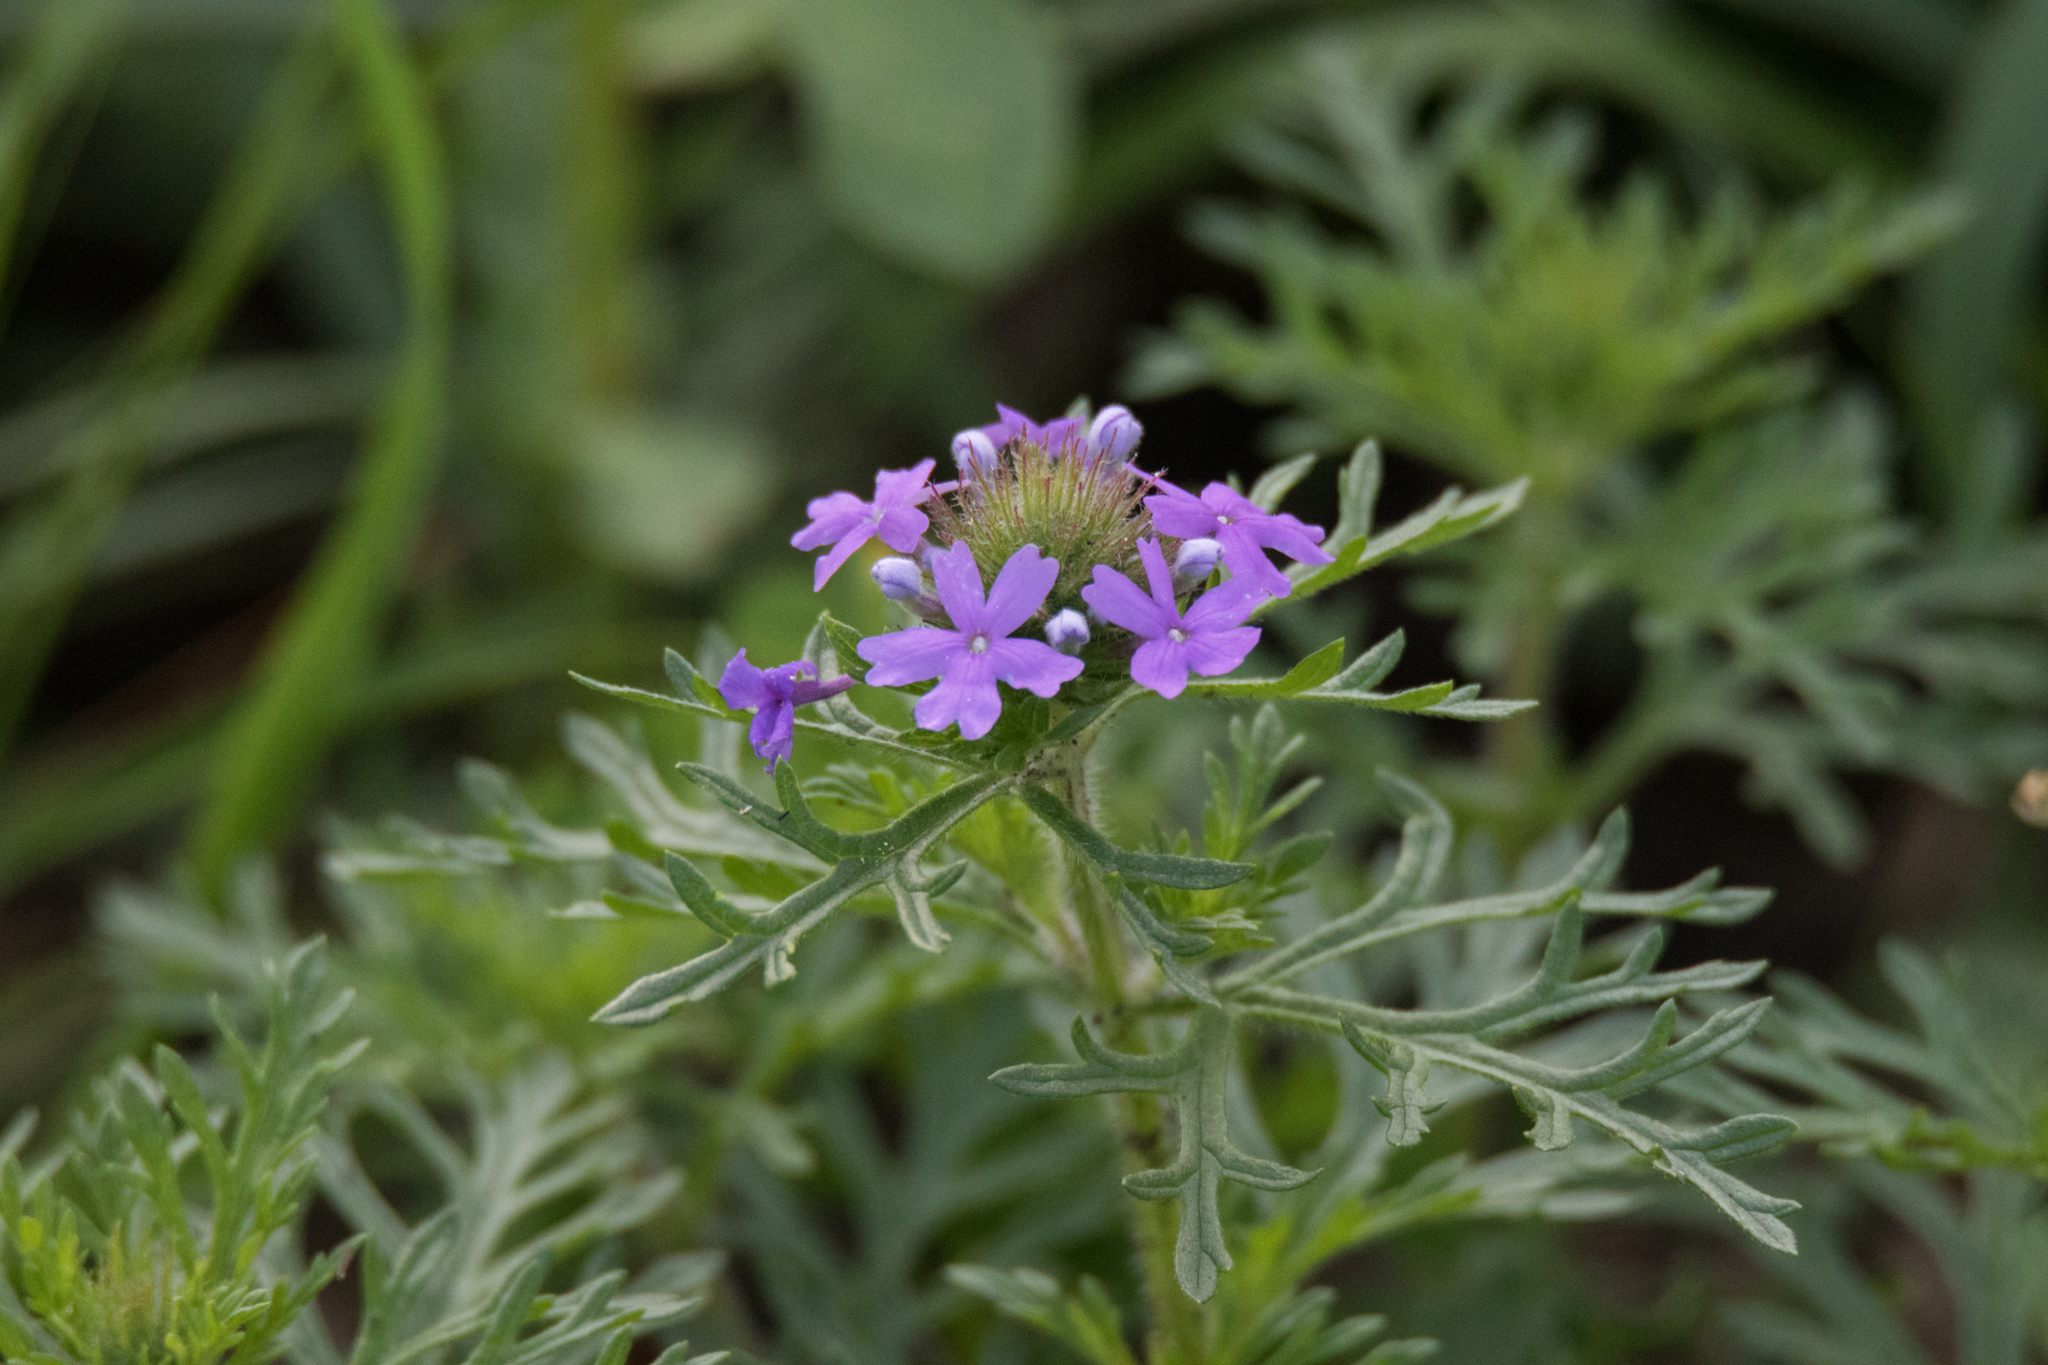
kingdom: Plantae
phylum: Tracheophyta
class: Magnoliopsida
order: Lamiales
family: Verbenaceae
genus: Verbena
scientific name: Verbena bipinnatifida
